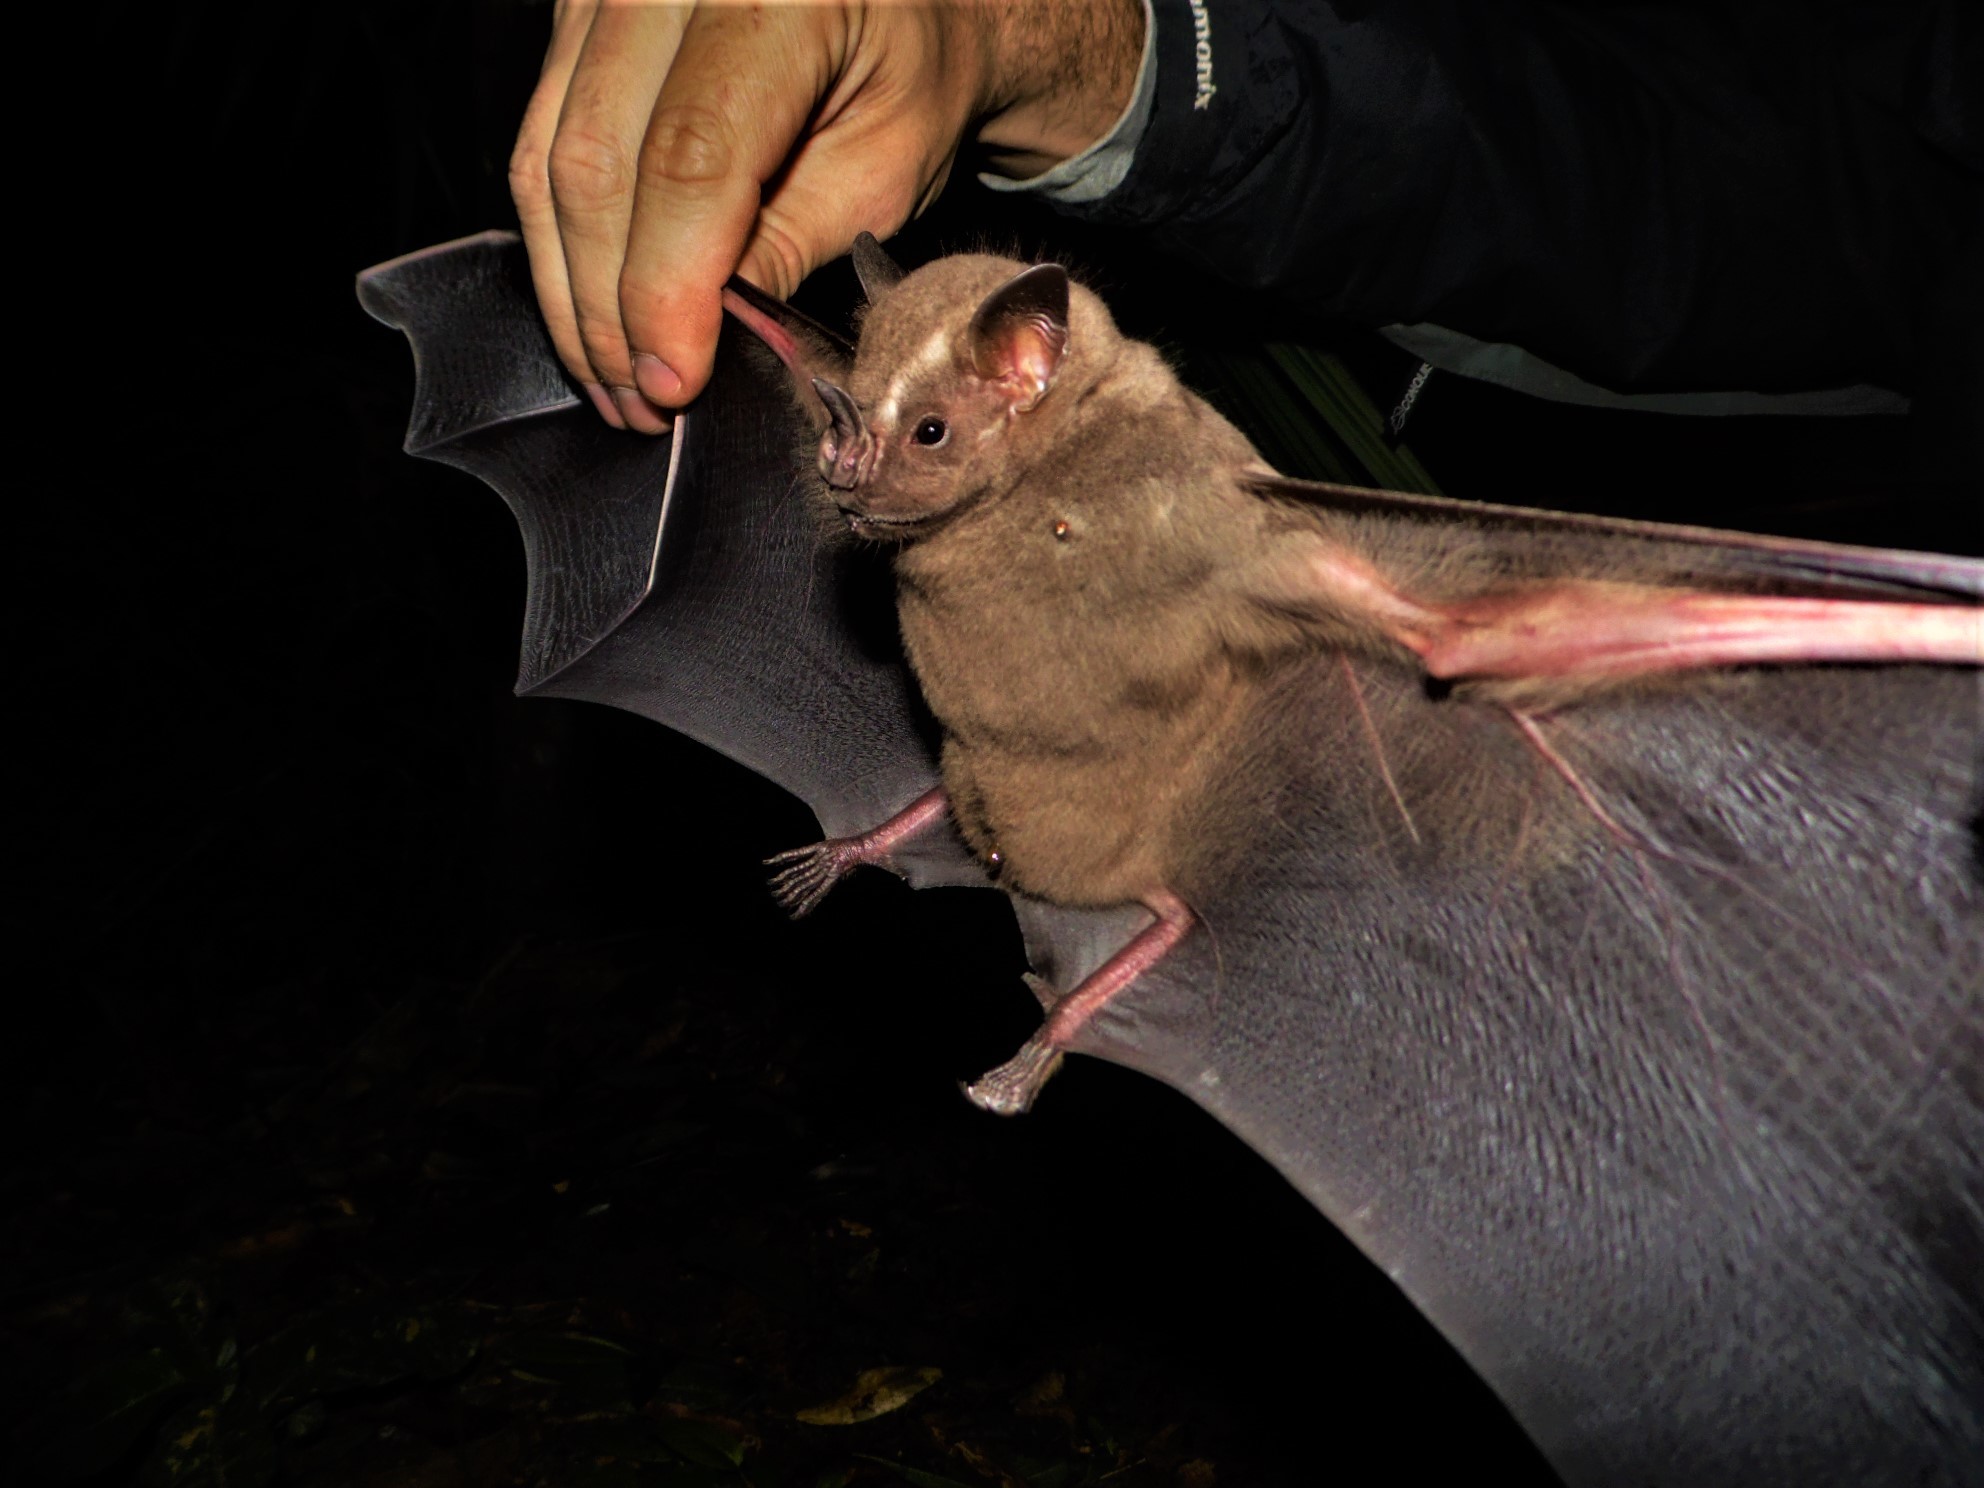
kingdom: Animalia
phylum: Chordata
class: Mammalia
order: Chiroptera
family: Phyllostomidae
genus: Artibeus
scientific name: Artibeus lituratus
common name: Great fruit-eating bat
